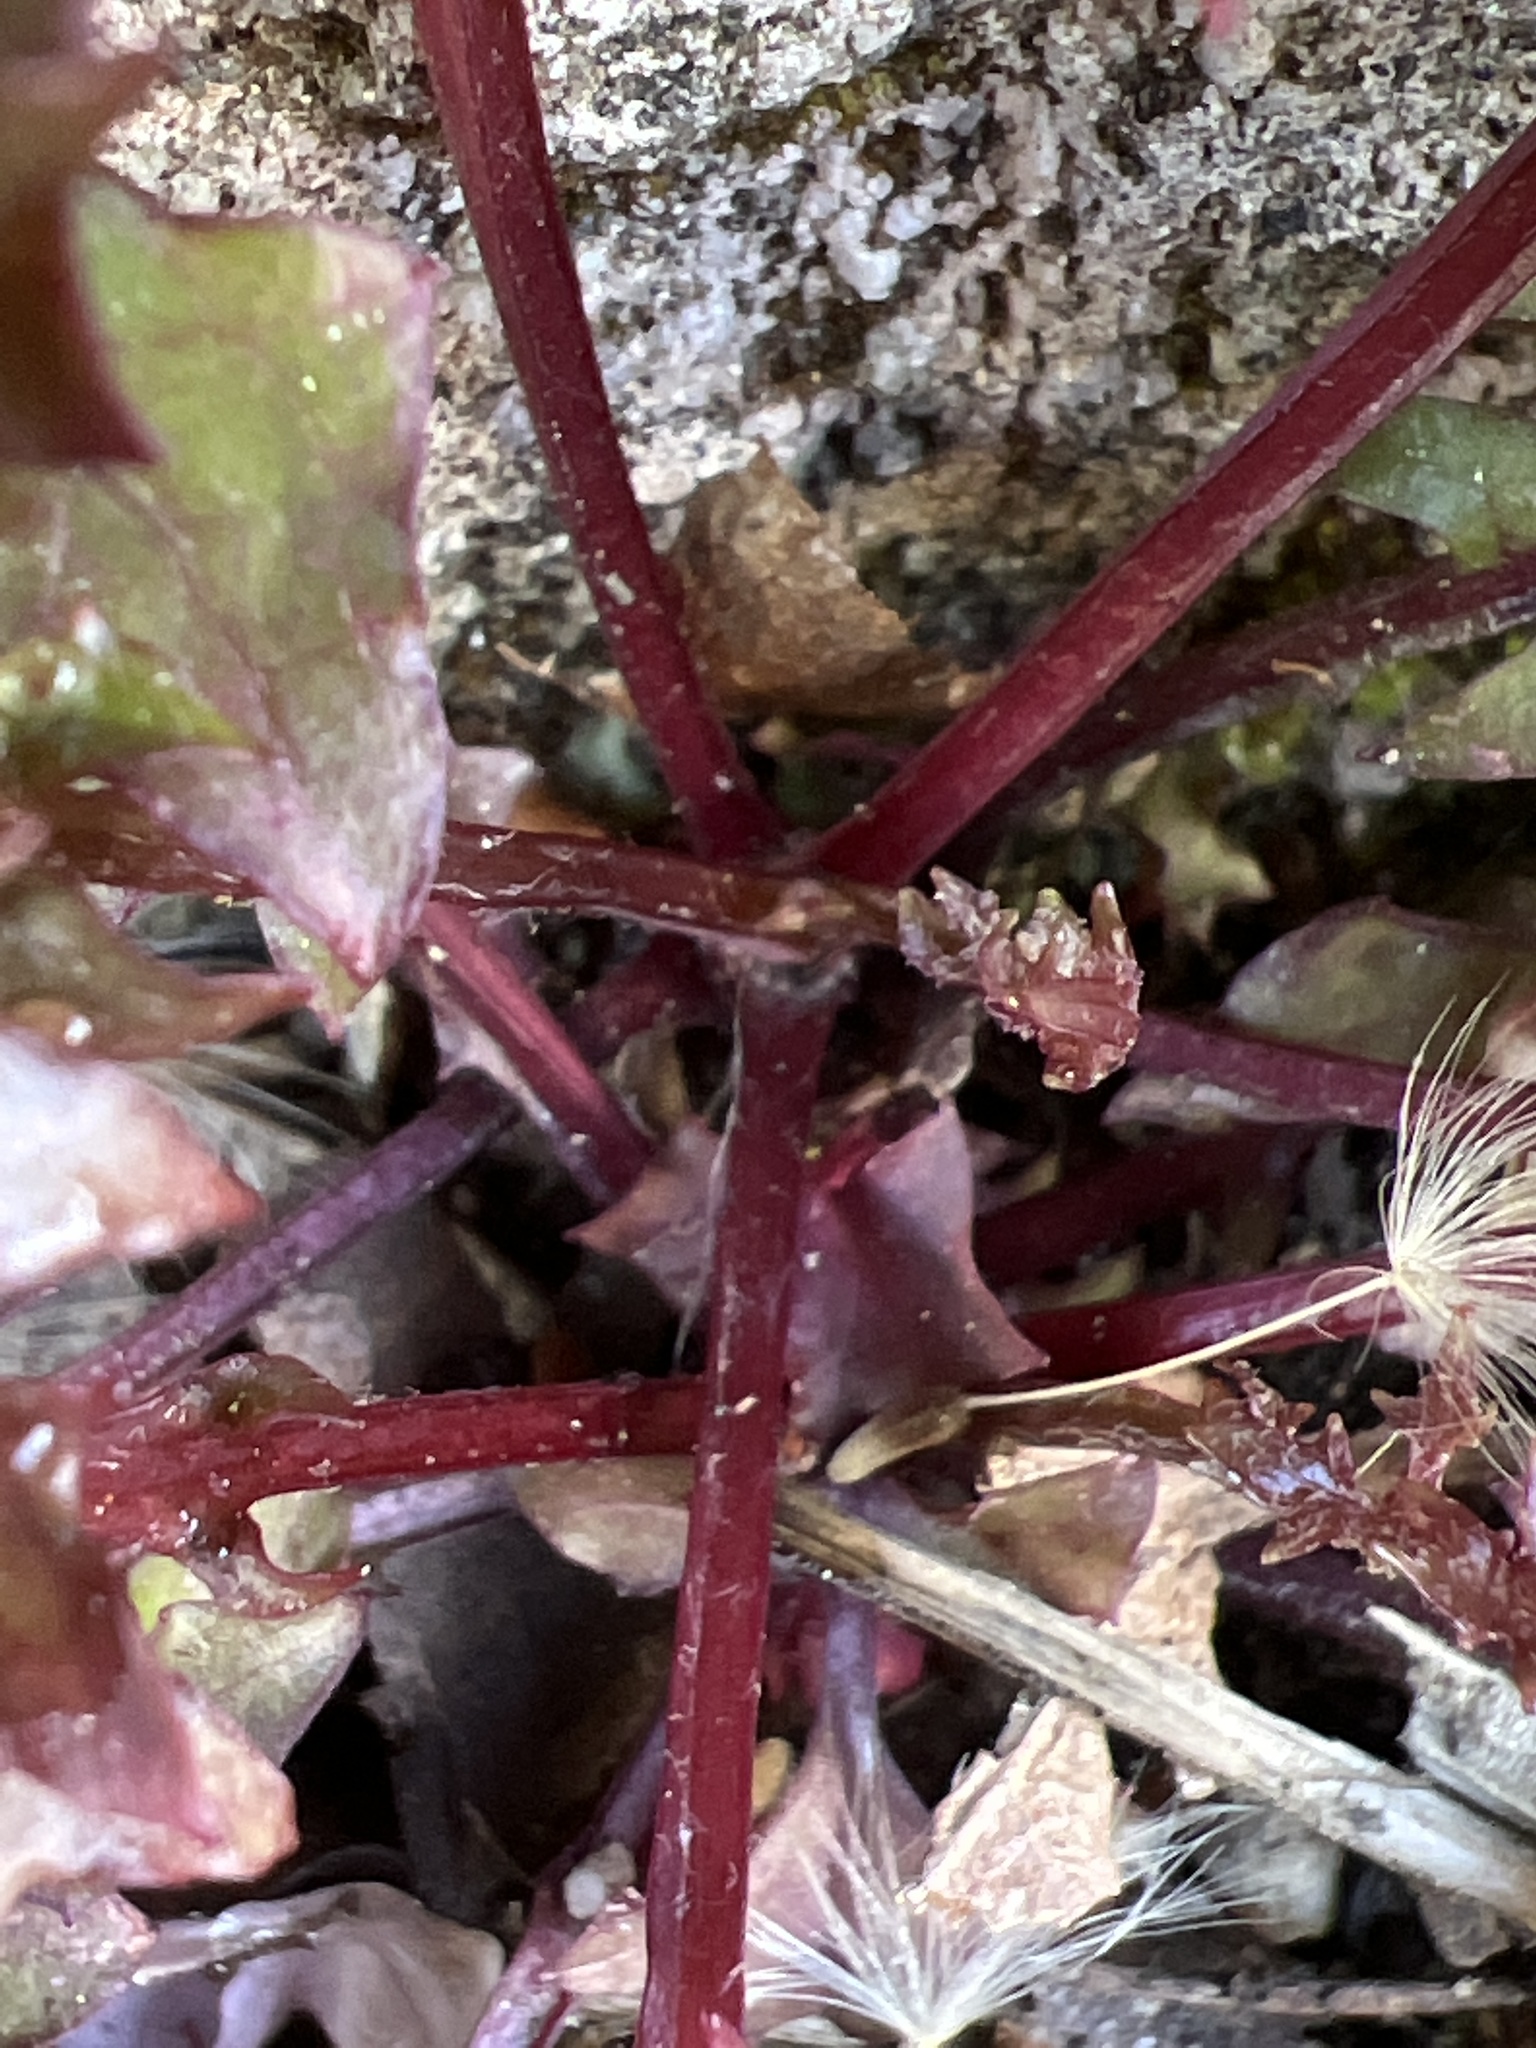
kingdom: Plantae
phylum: Tracheophyta
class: Magnoliopsida
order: Asterales
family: Asteraceae
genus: Mycelis
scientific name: Mycelis muralis
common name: Wall lettuce
